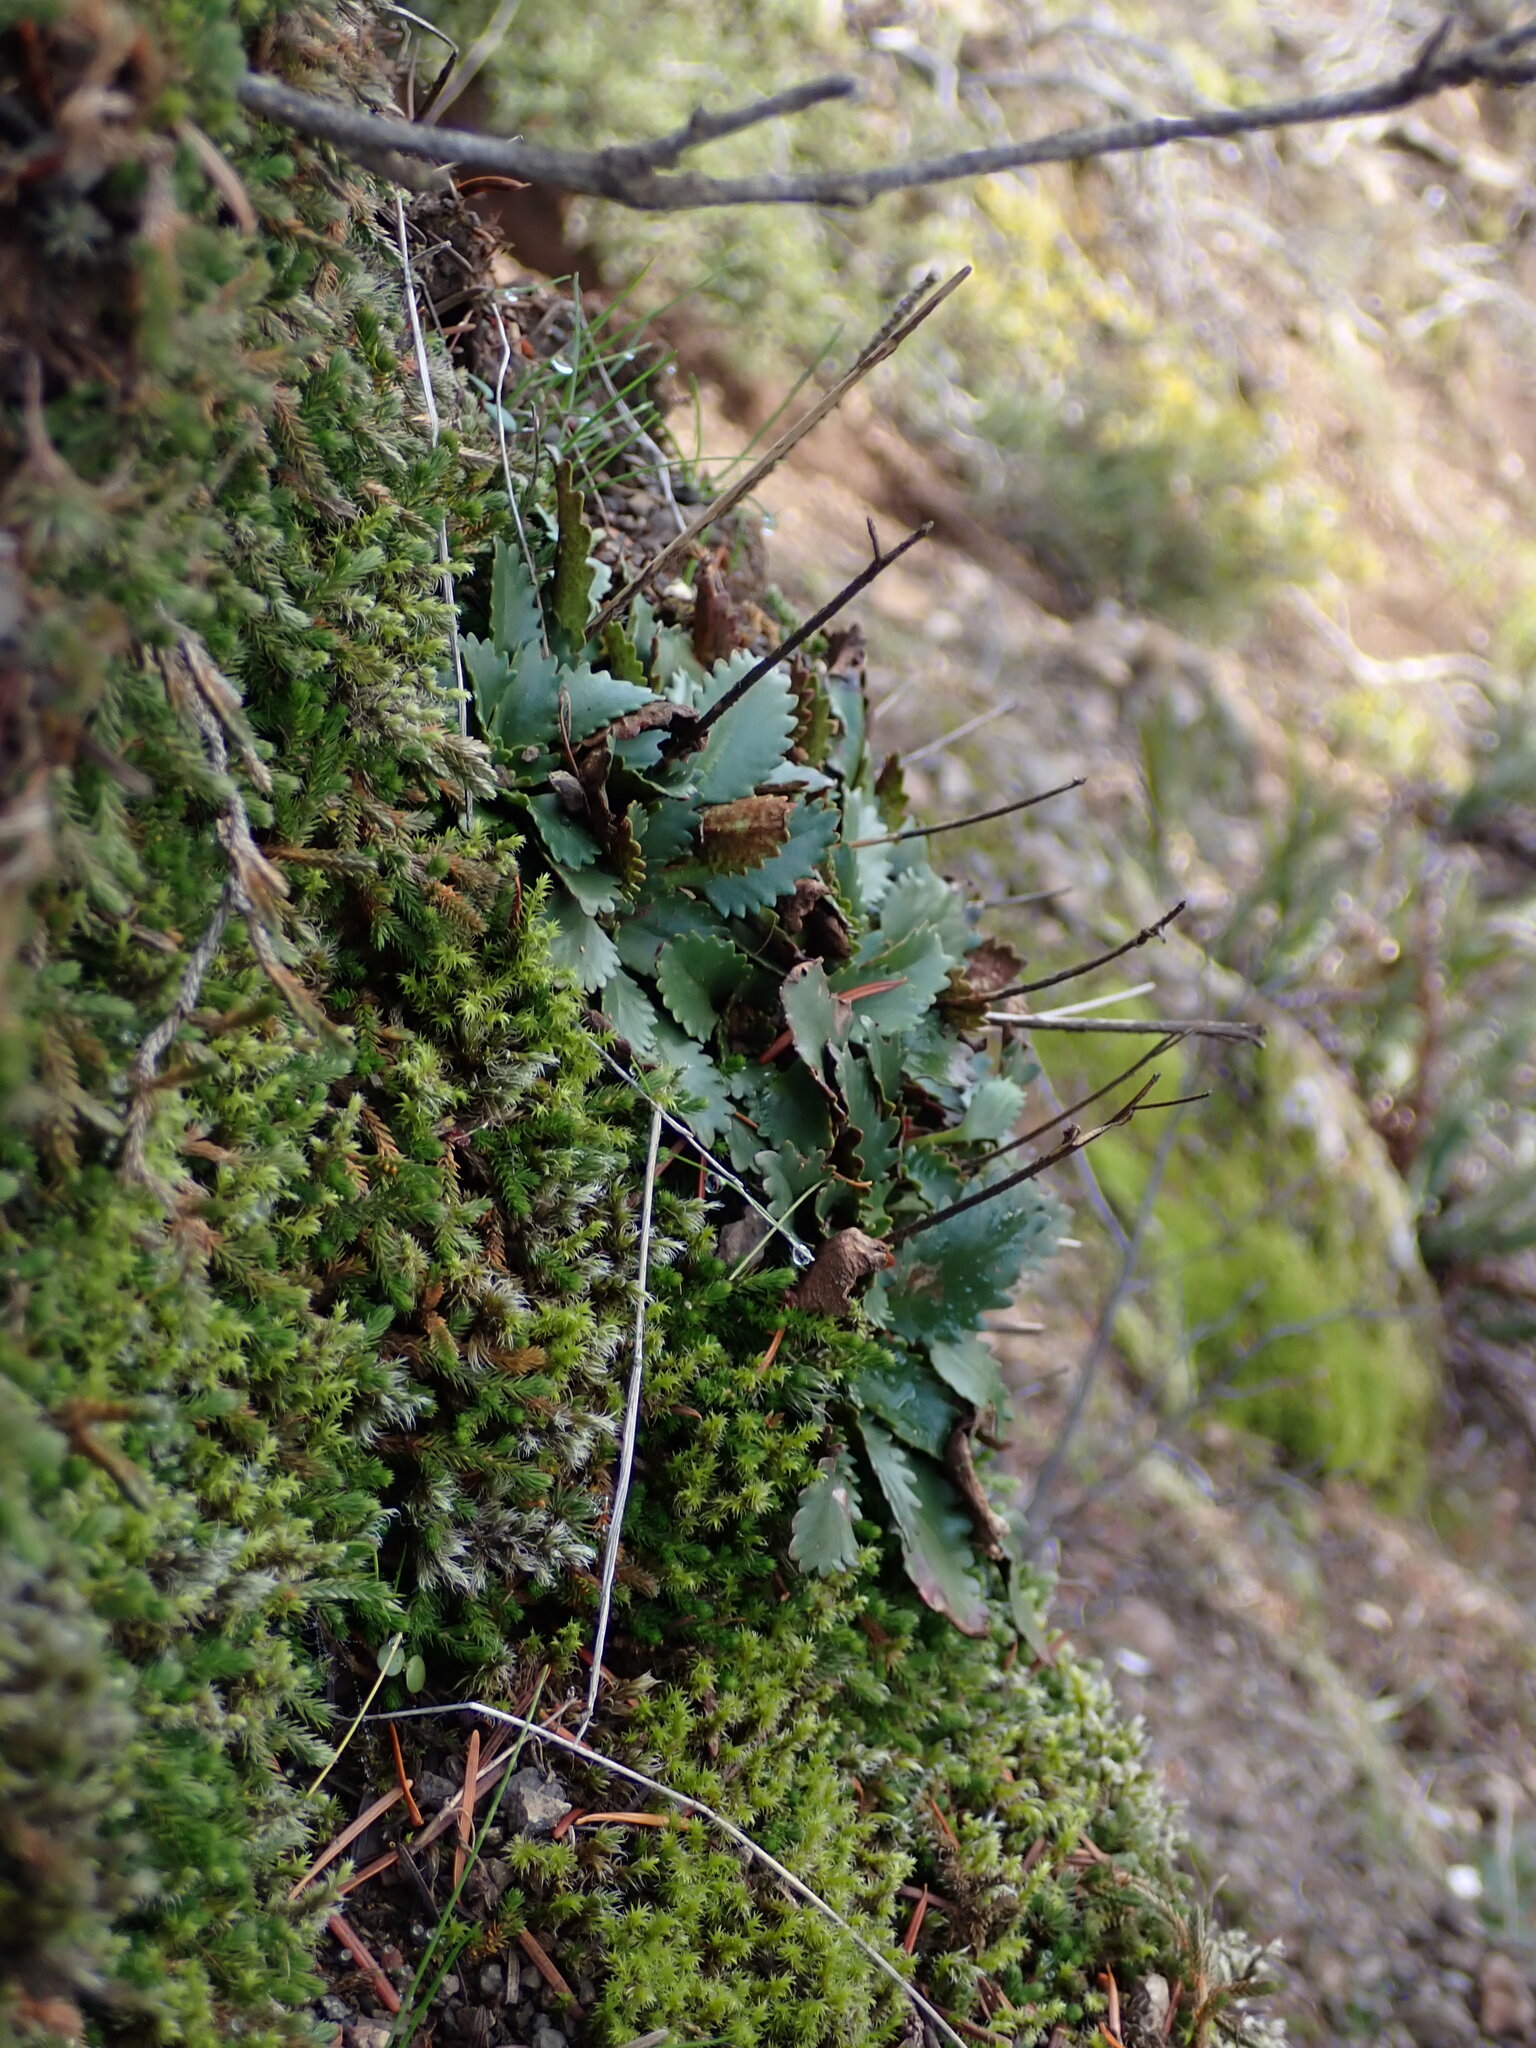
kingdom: Plantae
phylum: Tracheophyta
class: Magnoliopsida
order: Saxifragales
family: Saxifragaceae
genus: Micranthes
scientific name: Micranthes rufidula
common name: Rustyhair saxifrage
